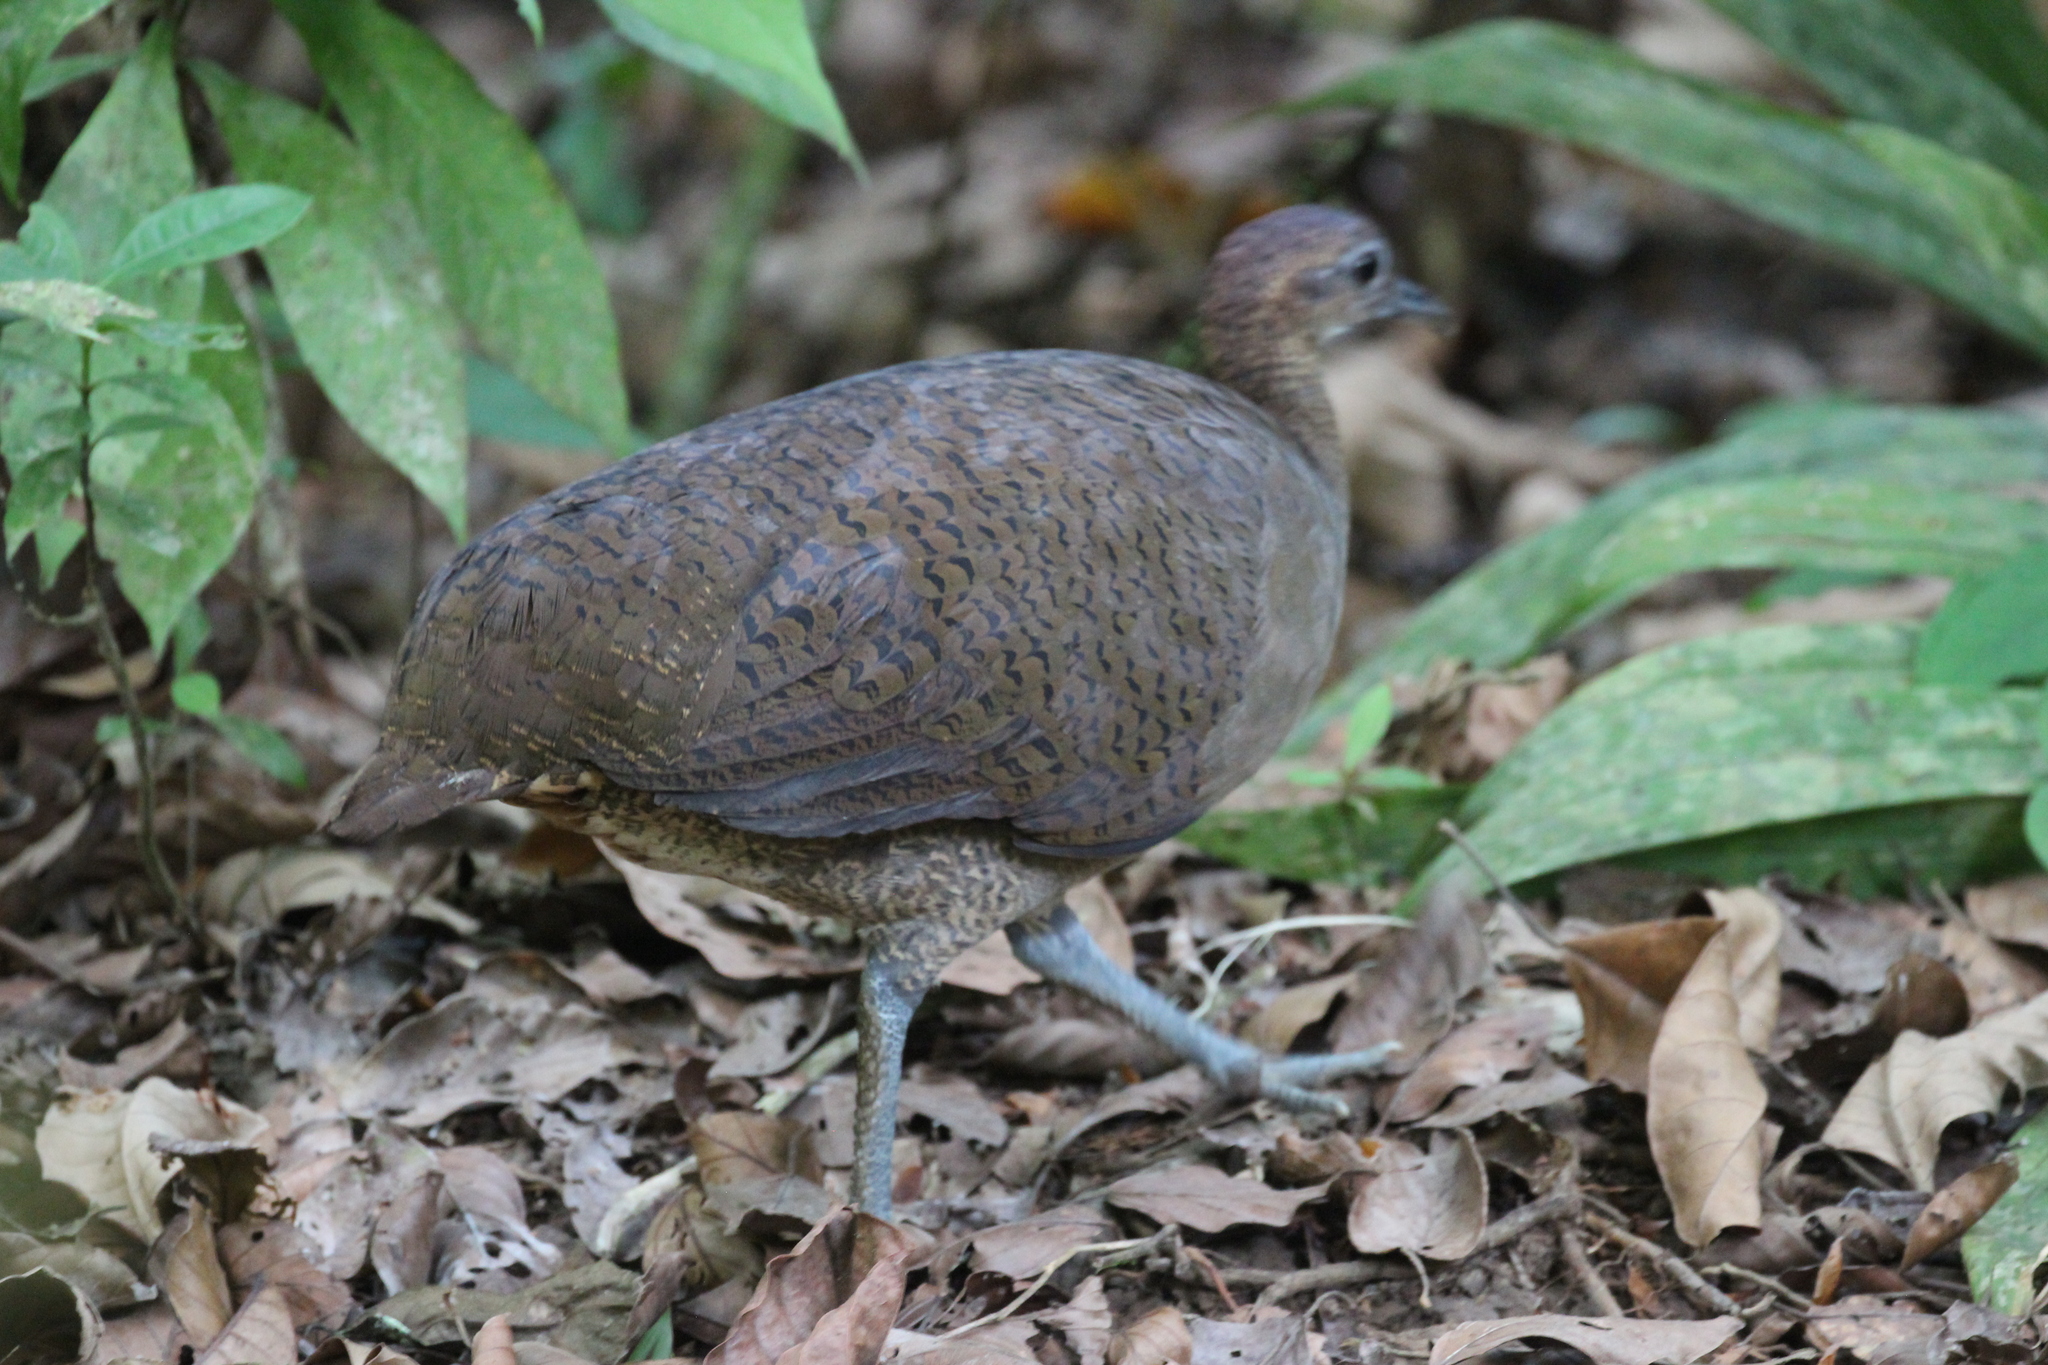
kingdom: Animalia
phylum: Chordata
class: Aves
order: Tinamiformes
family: Tinamidae
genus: Tinamus
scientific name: Tinamus major
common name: Great tinamou
